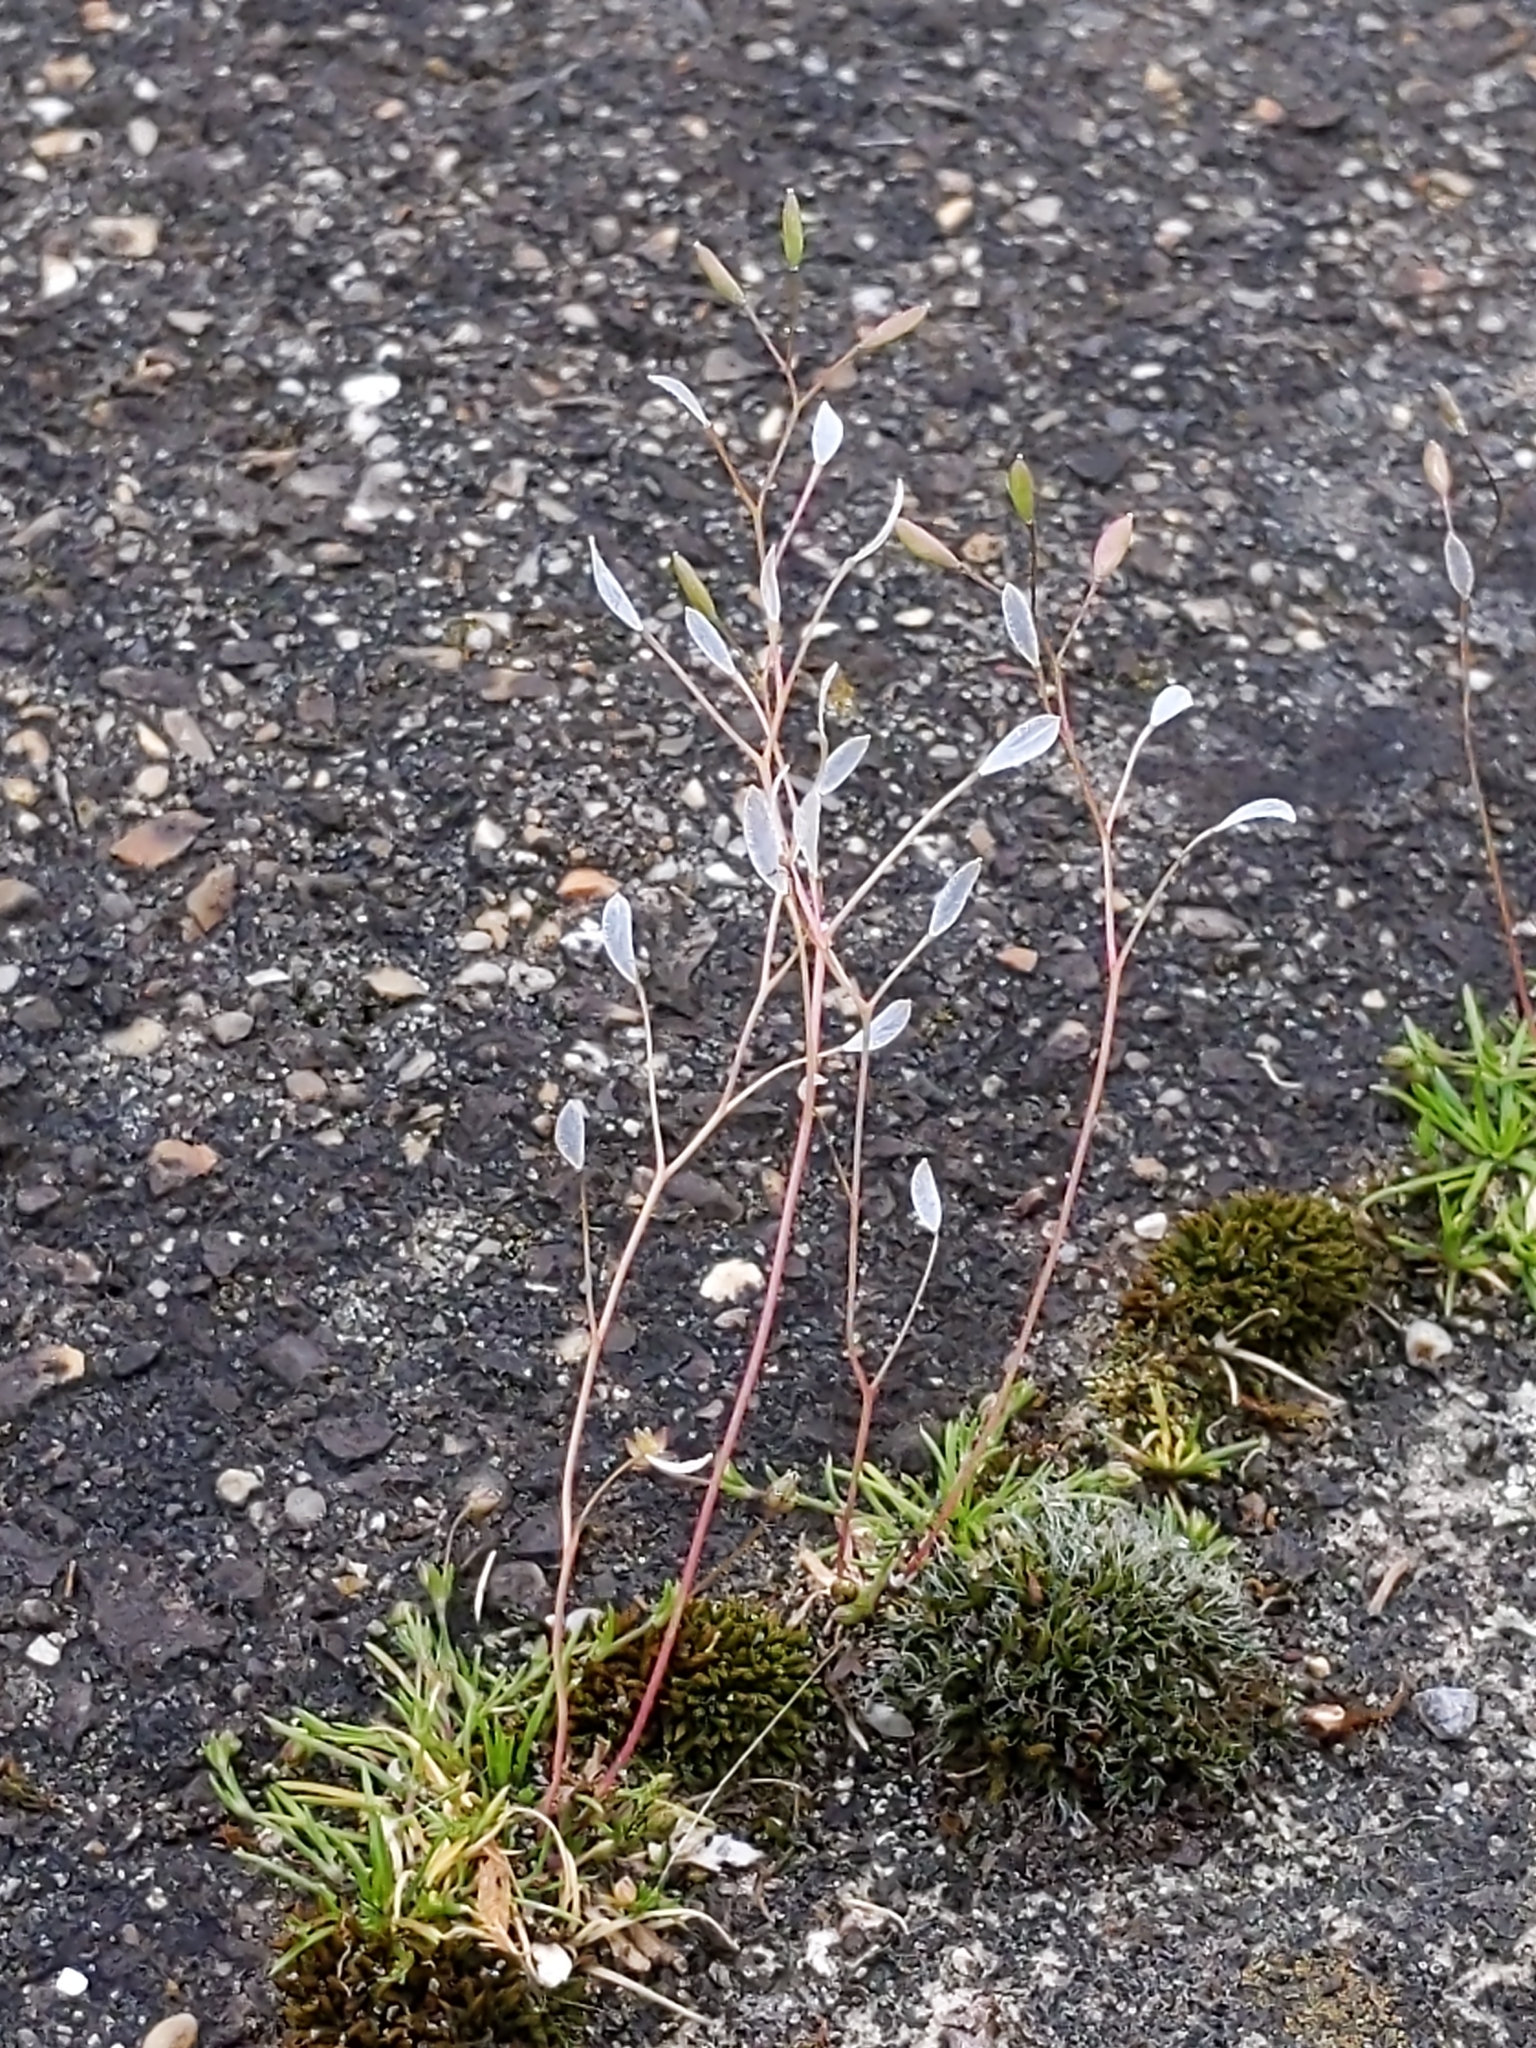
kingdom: Plantae
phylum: Tracheophyta
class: Magnoliopsida
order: Brassicales
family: Brassicaceae
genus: Draba
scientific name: Draba verna
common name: Spring draba
